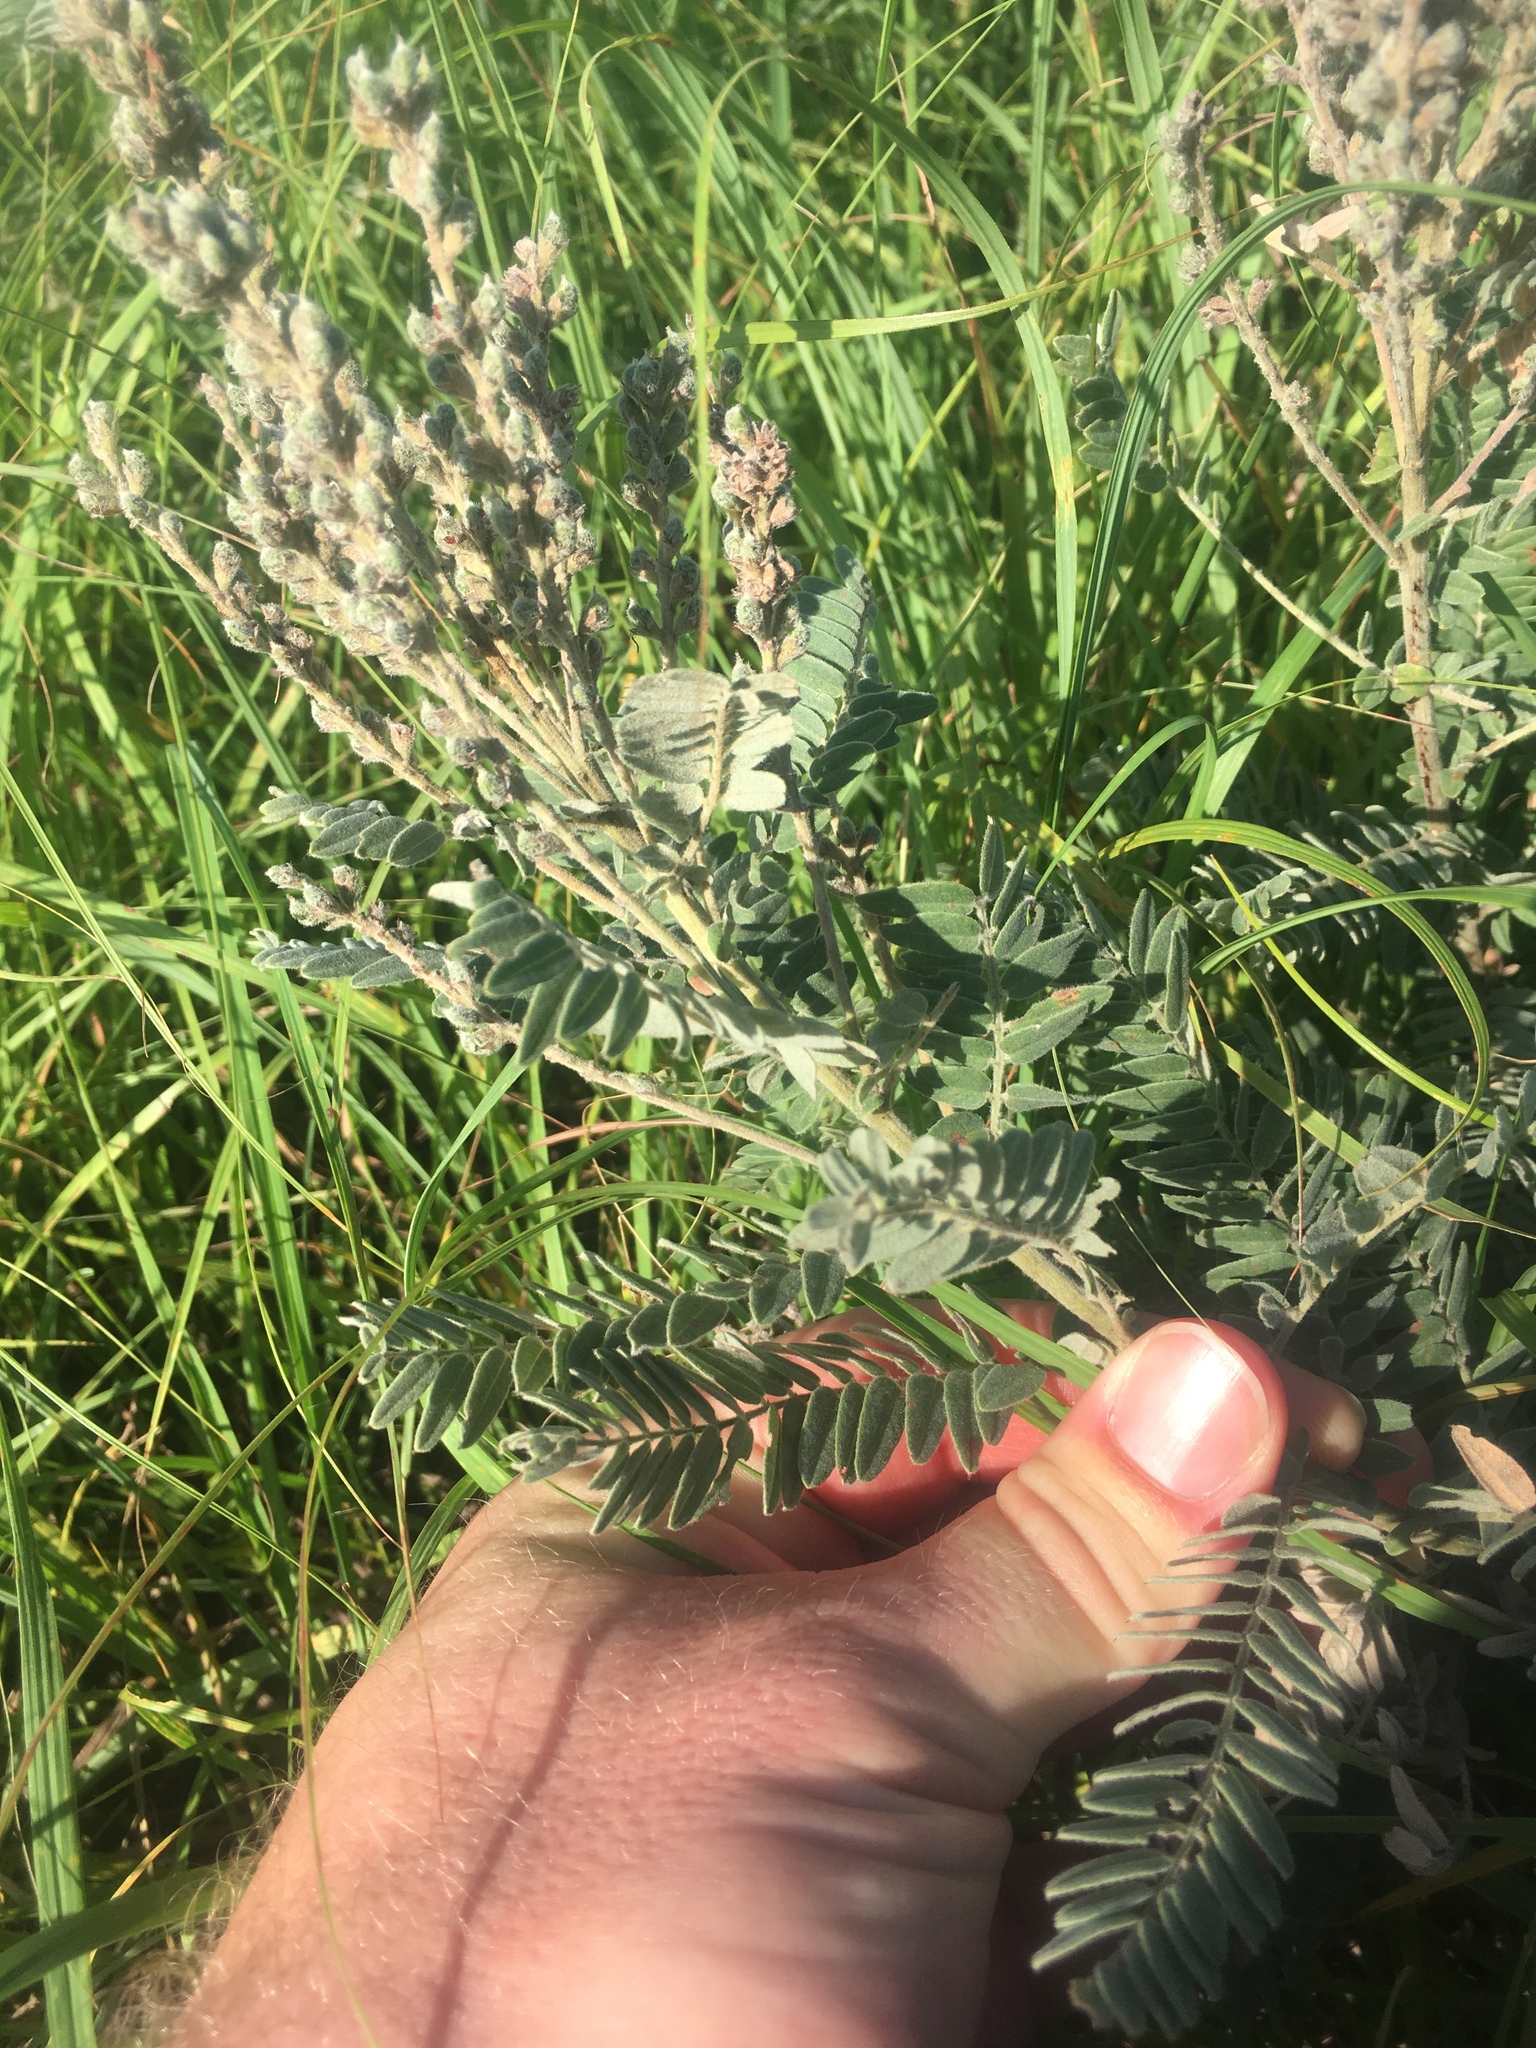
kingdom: Plantae
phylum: Tracheophyta
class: Magnoliopsida
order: Fabales
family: Fabaceae
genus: Amorpha
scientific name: Amorpha canescens
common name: Leadplant
